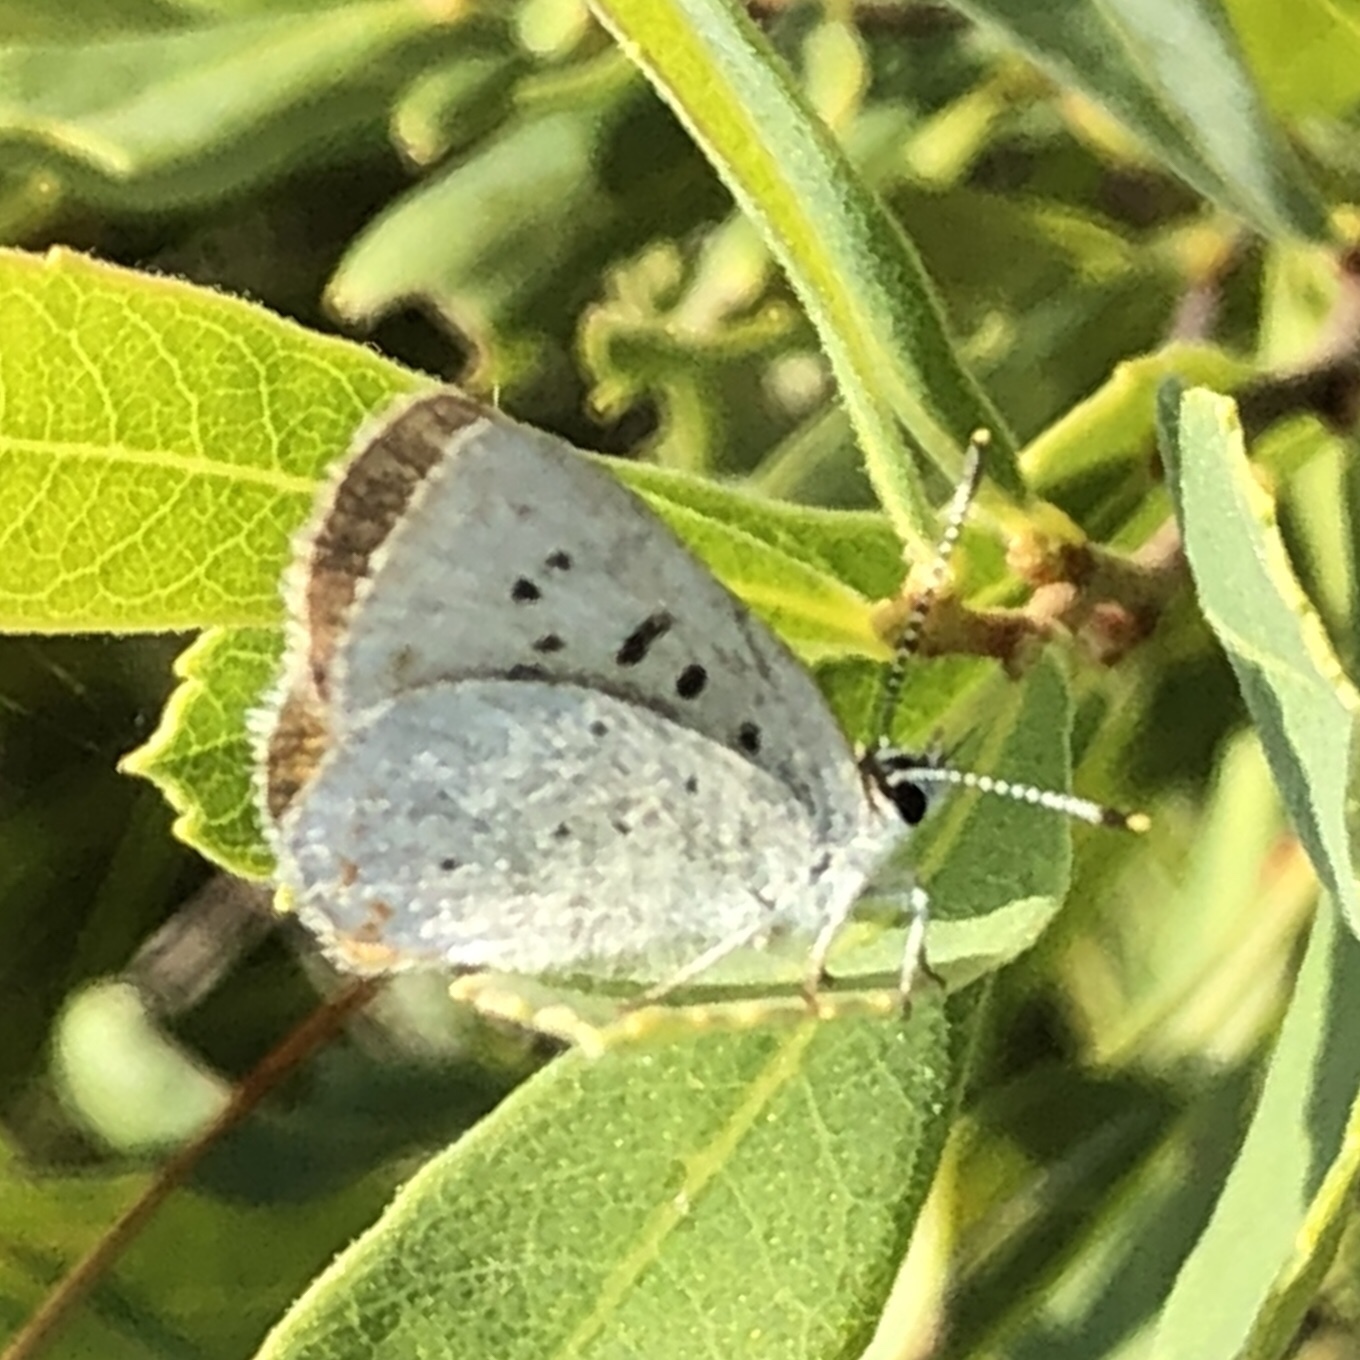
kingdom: Animalia
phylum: Arthropoda
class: Insecta
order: Lepidoptera
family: Lycaenidae
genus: Tharsalea
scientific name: Tharsalea epixanthe
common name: Bog copper
